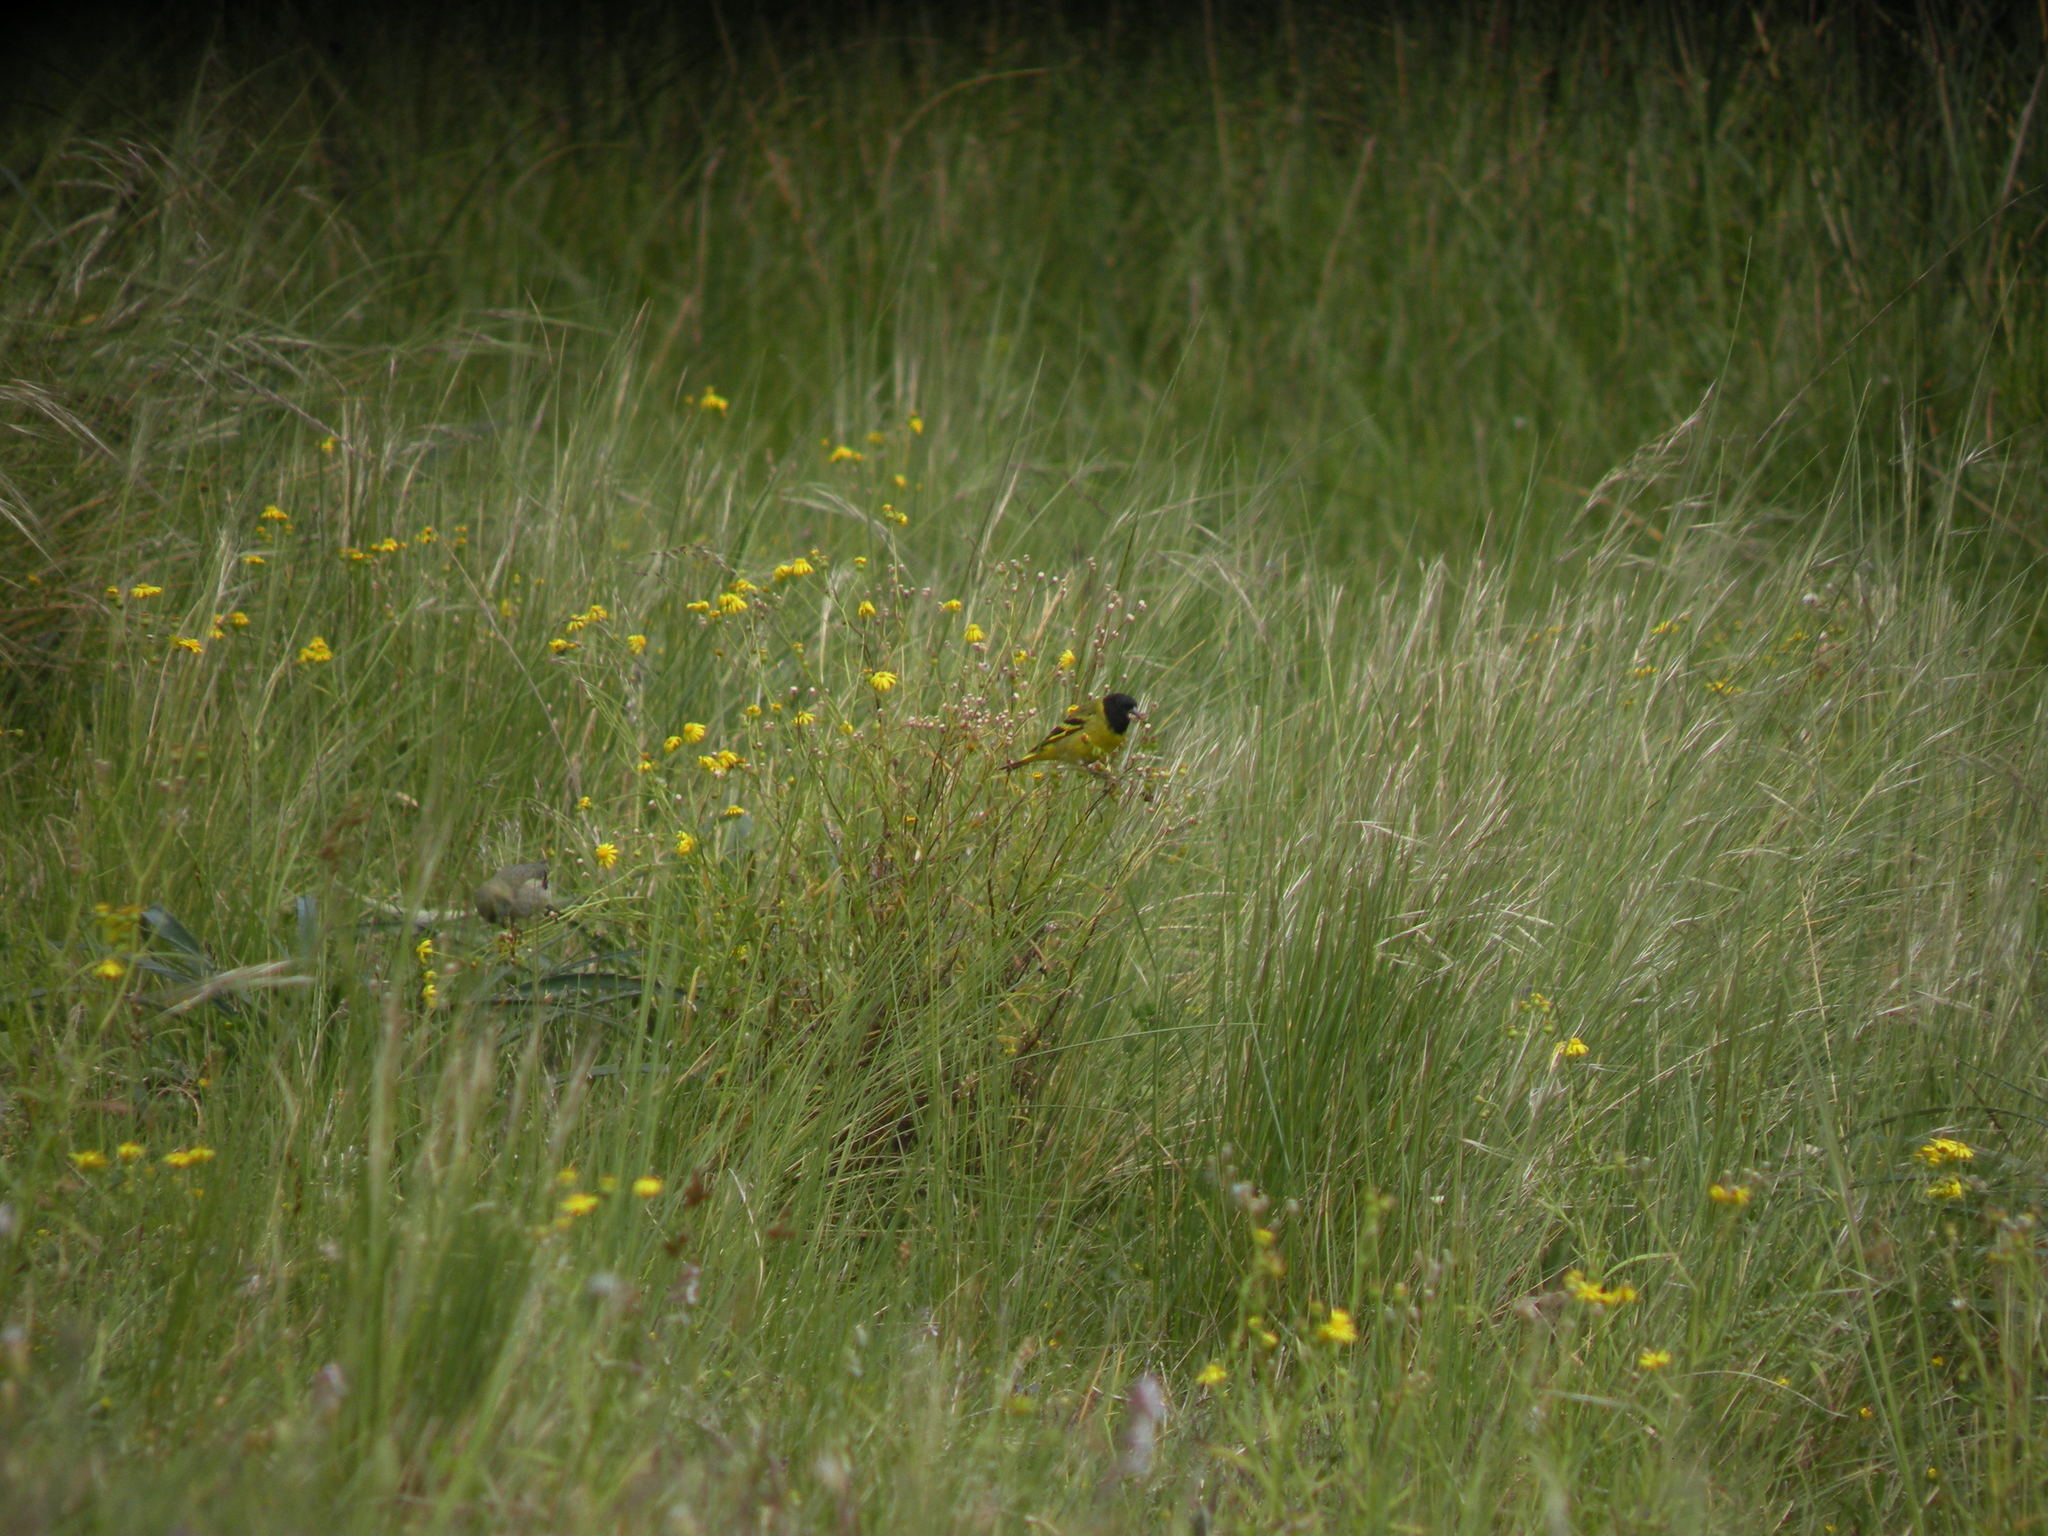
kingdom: Animalia
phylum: Chordata
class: Aves
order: Passeriformes
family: Fringillidae
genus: Spinus
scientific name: Spinus magellanicus
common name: Hooded siskin
